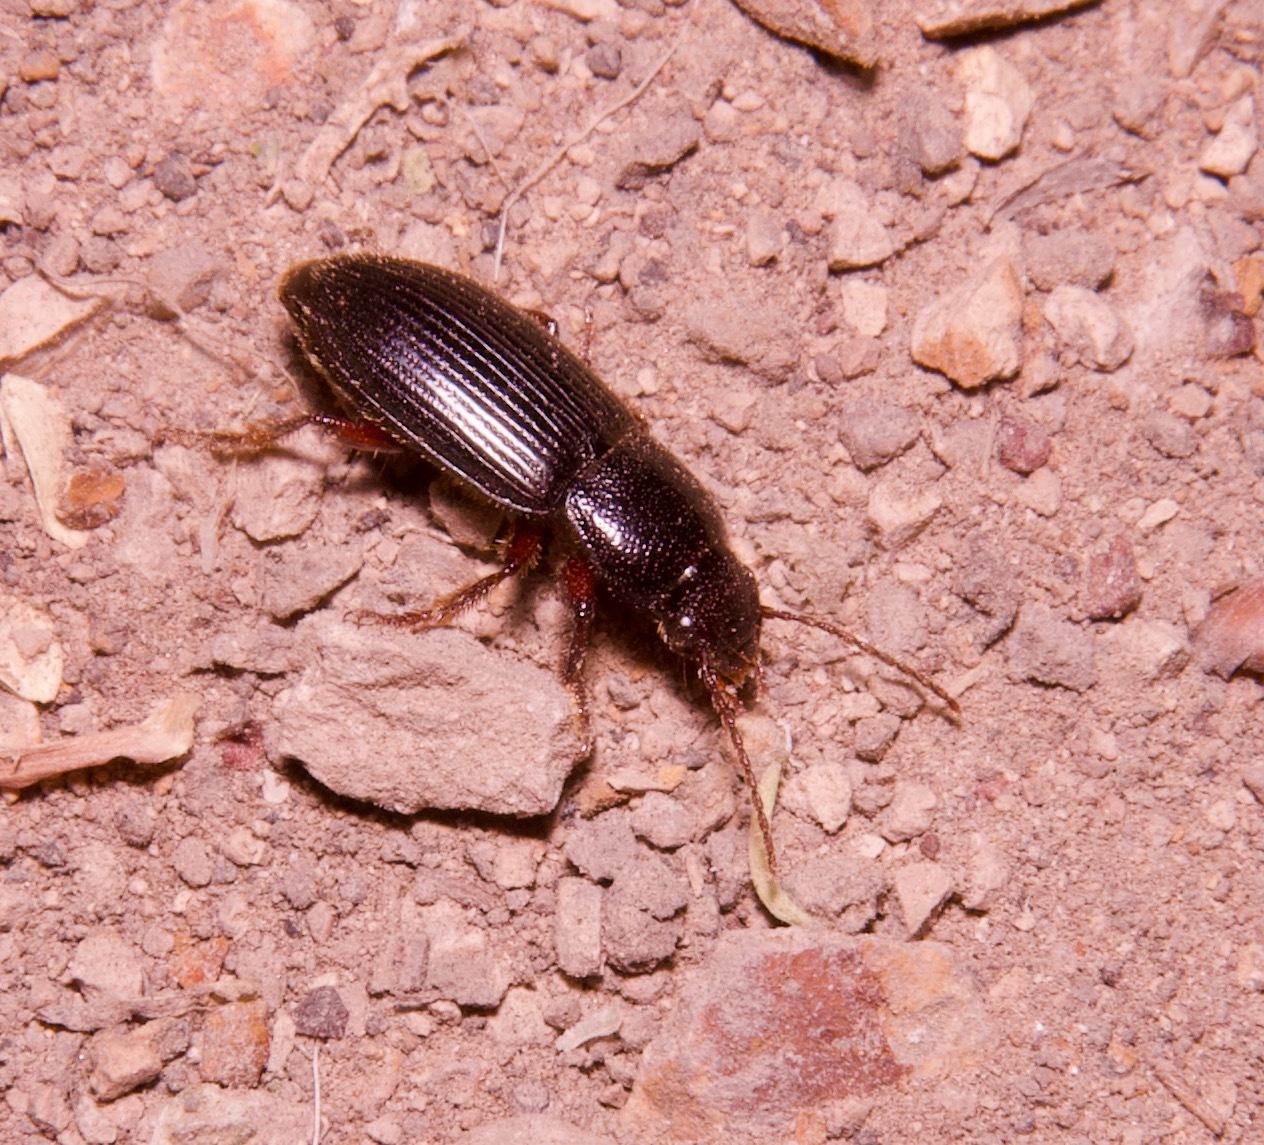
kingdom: Animalia
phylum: Arthropoda
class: Insecta
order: Coleoptera
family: Carabidae
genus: Dicheirus
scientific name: Dicheirus piceus
